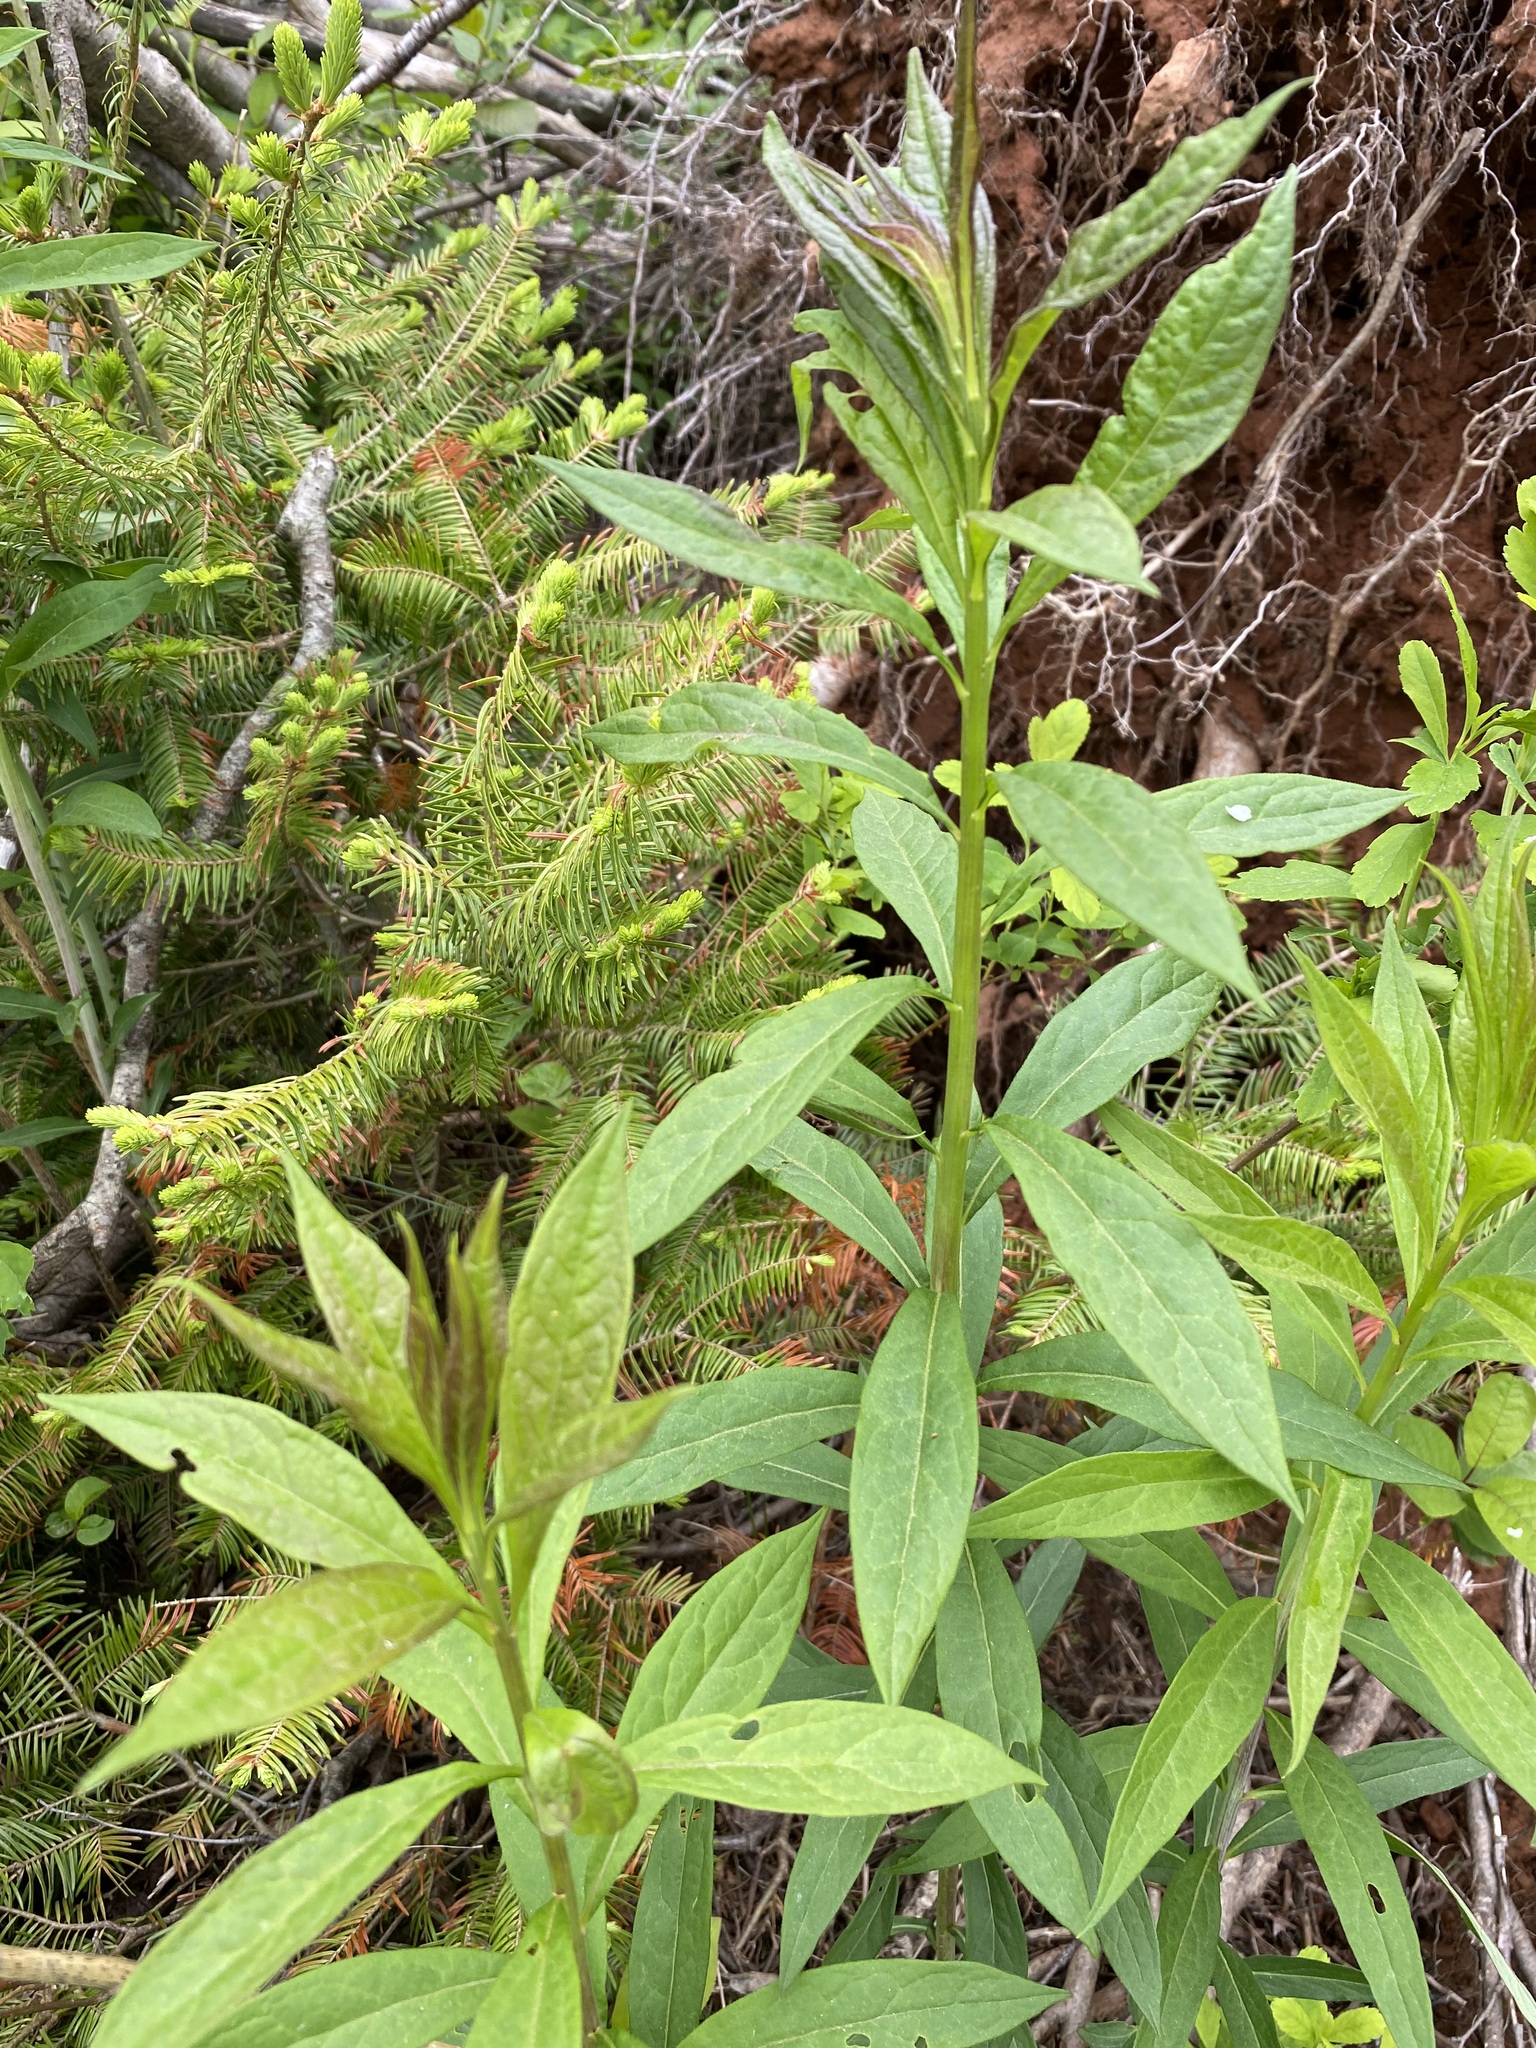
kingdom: Plantae
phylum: Tracheophyta
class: Magnoliopsida
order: Asterales
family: Asteraceae
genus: Doellingeria
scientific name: Doellingeria umbellata
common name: Flat-top white aster
